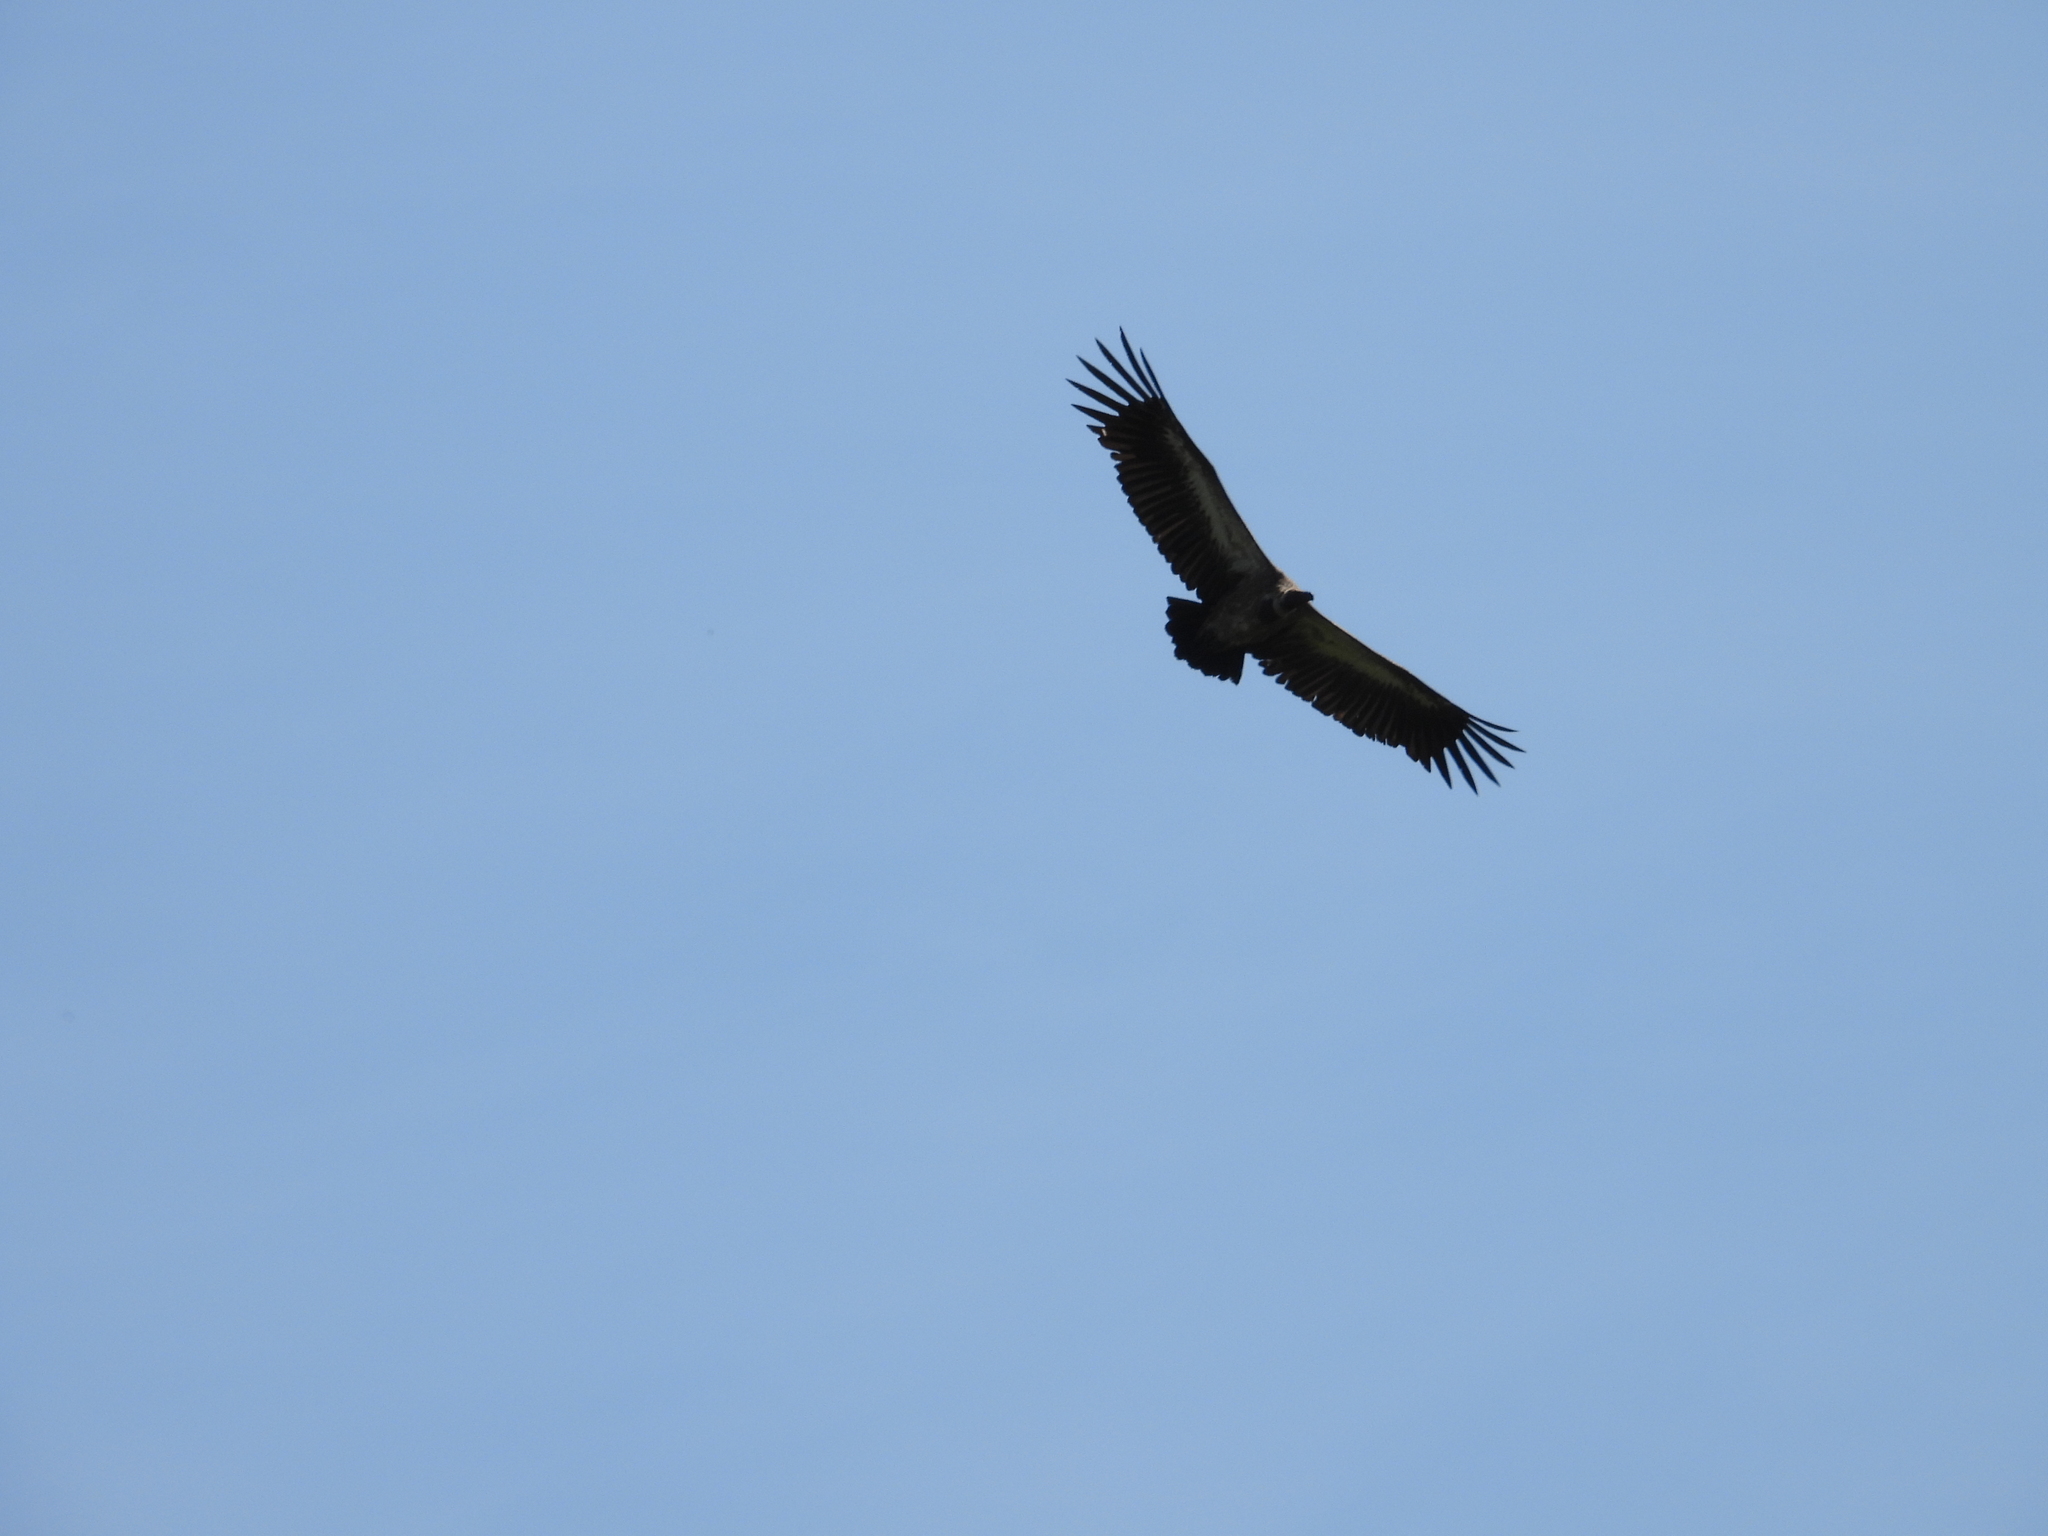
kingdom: Animalia
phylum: Chordata
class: Aves
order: Accipitriformes
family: Accipitridae
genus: Gyps
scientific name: Gyps africanus
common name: White-backed vulture
